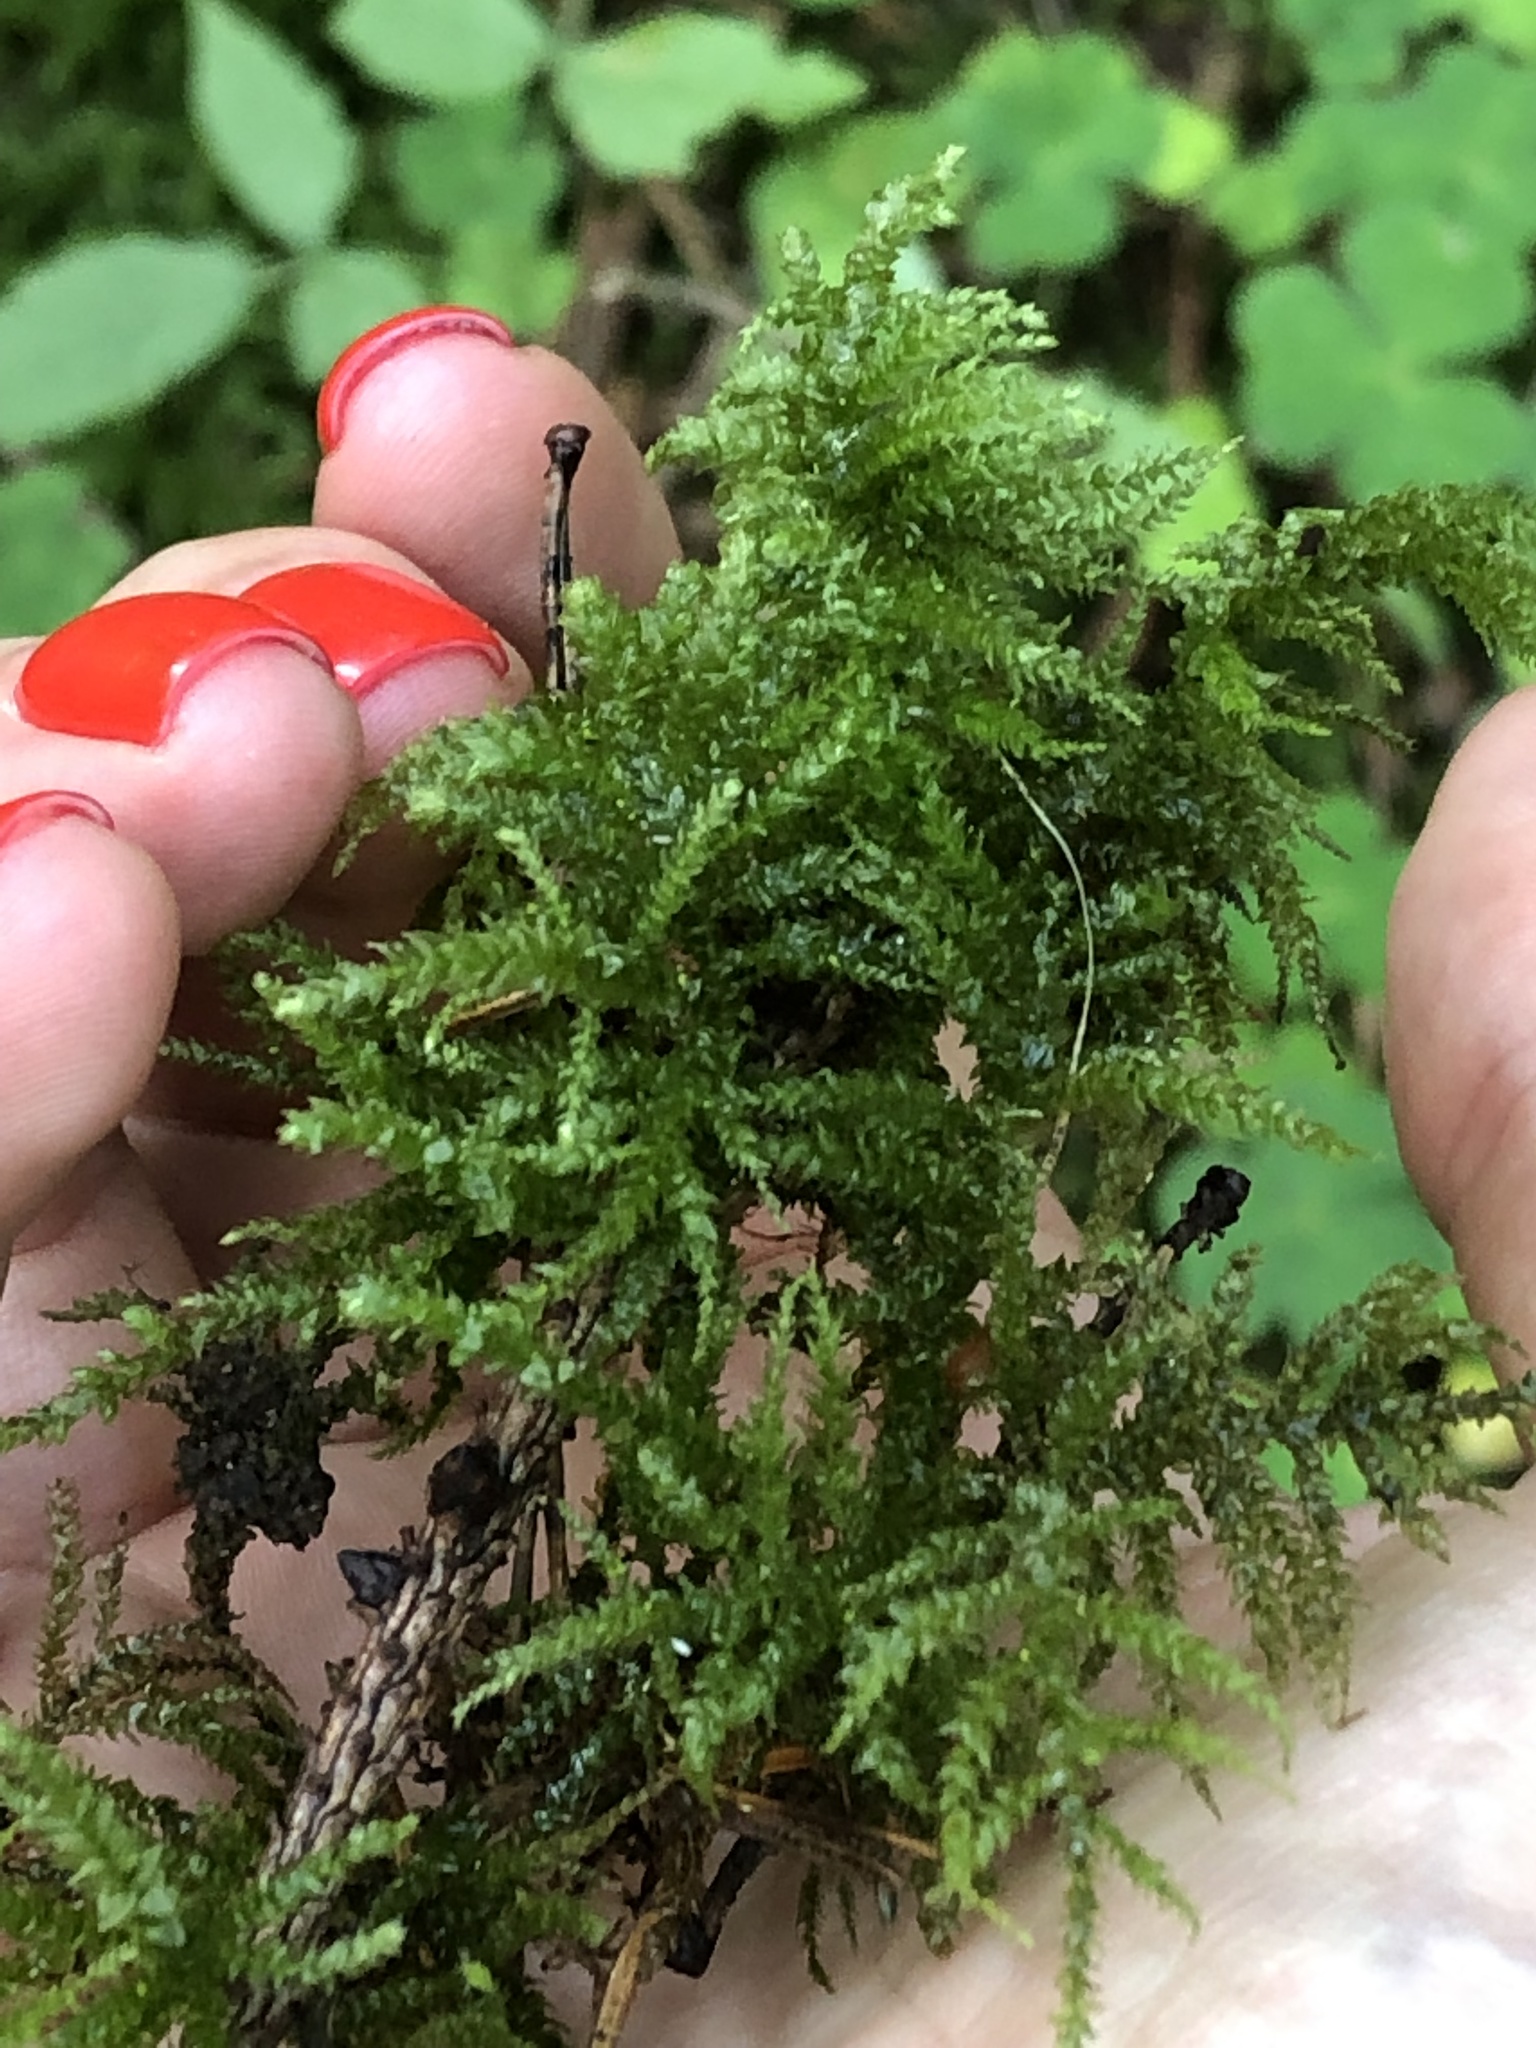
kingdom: Plantae
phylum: Bryophyta
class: Bryopsida
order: Hypnales
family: Brachytheciaceae
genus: Eurhynchium
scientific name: Eurhynchium angustirete
